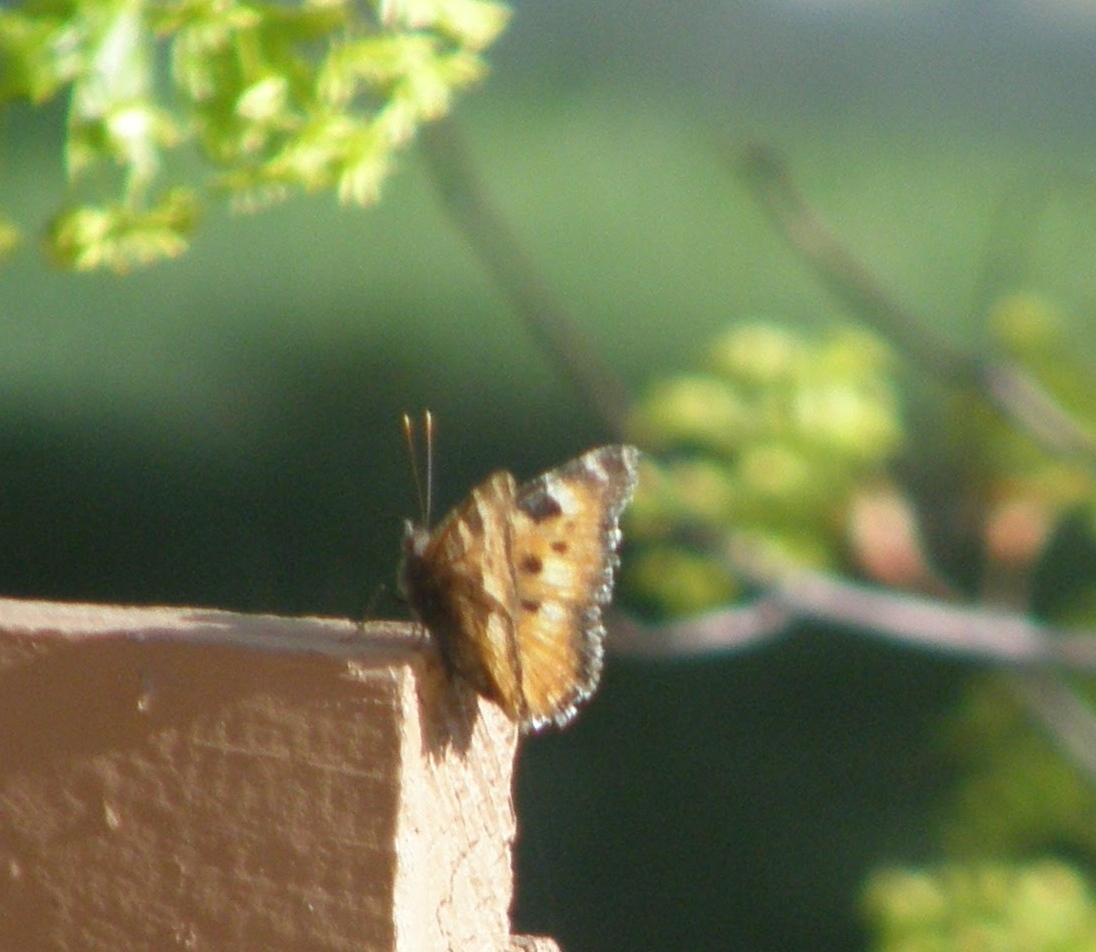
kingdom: Animalia
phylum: Arthropoda
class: Insecta
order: Lepidoptera
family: Nymphalidae
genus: Nymphalis
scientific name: Nymphalis californica
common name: California tortoiseshell
